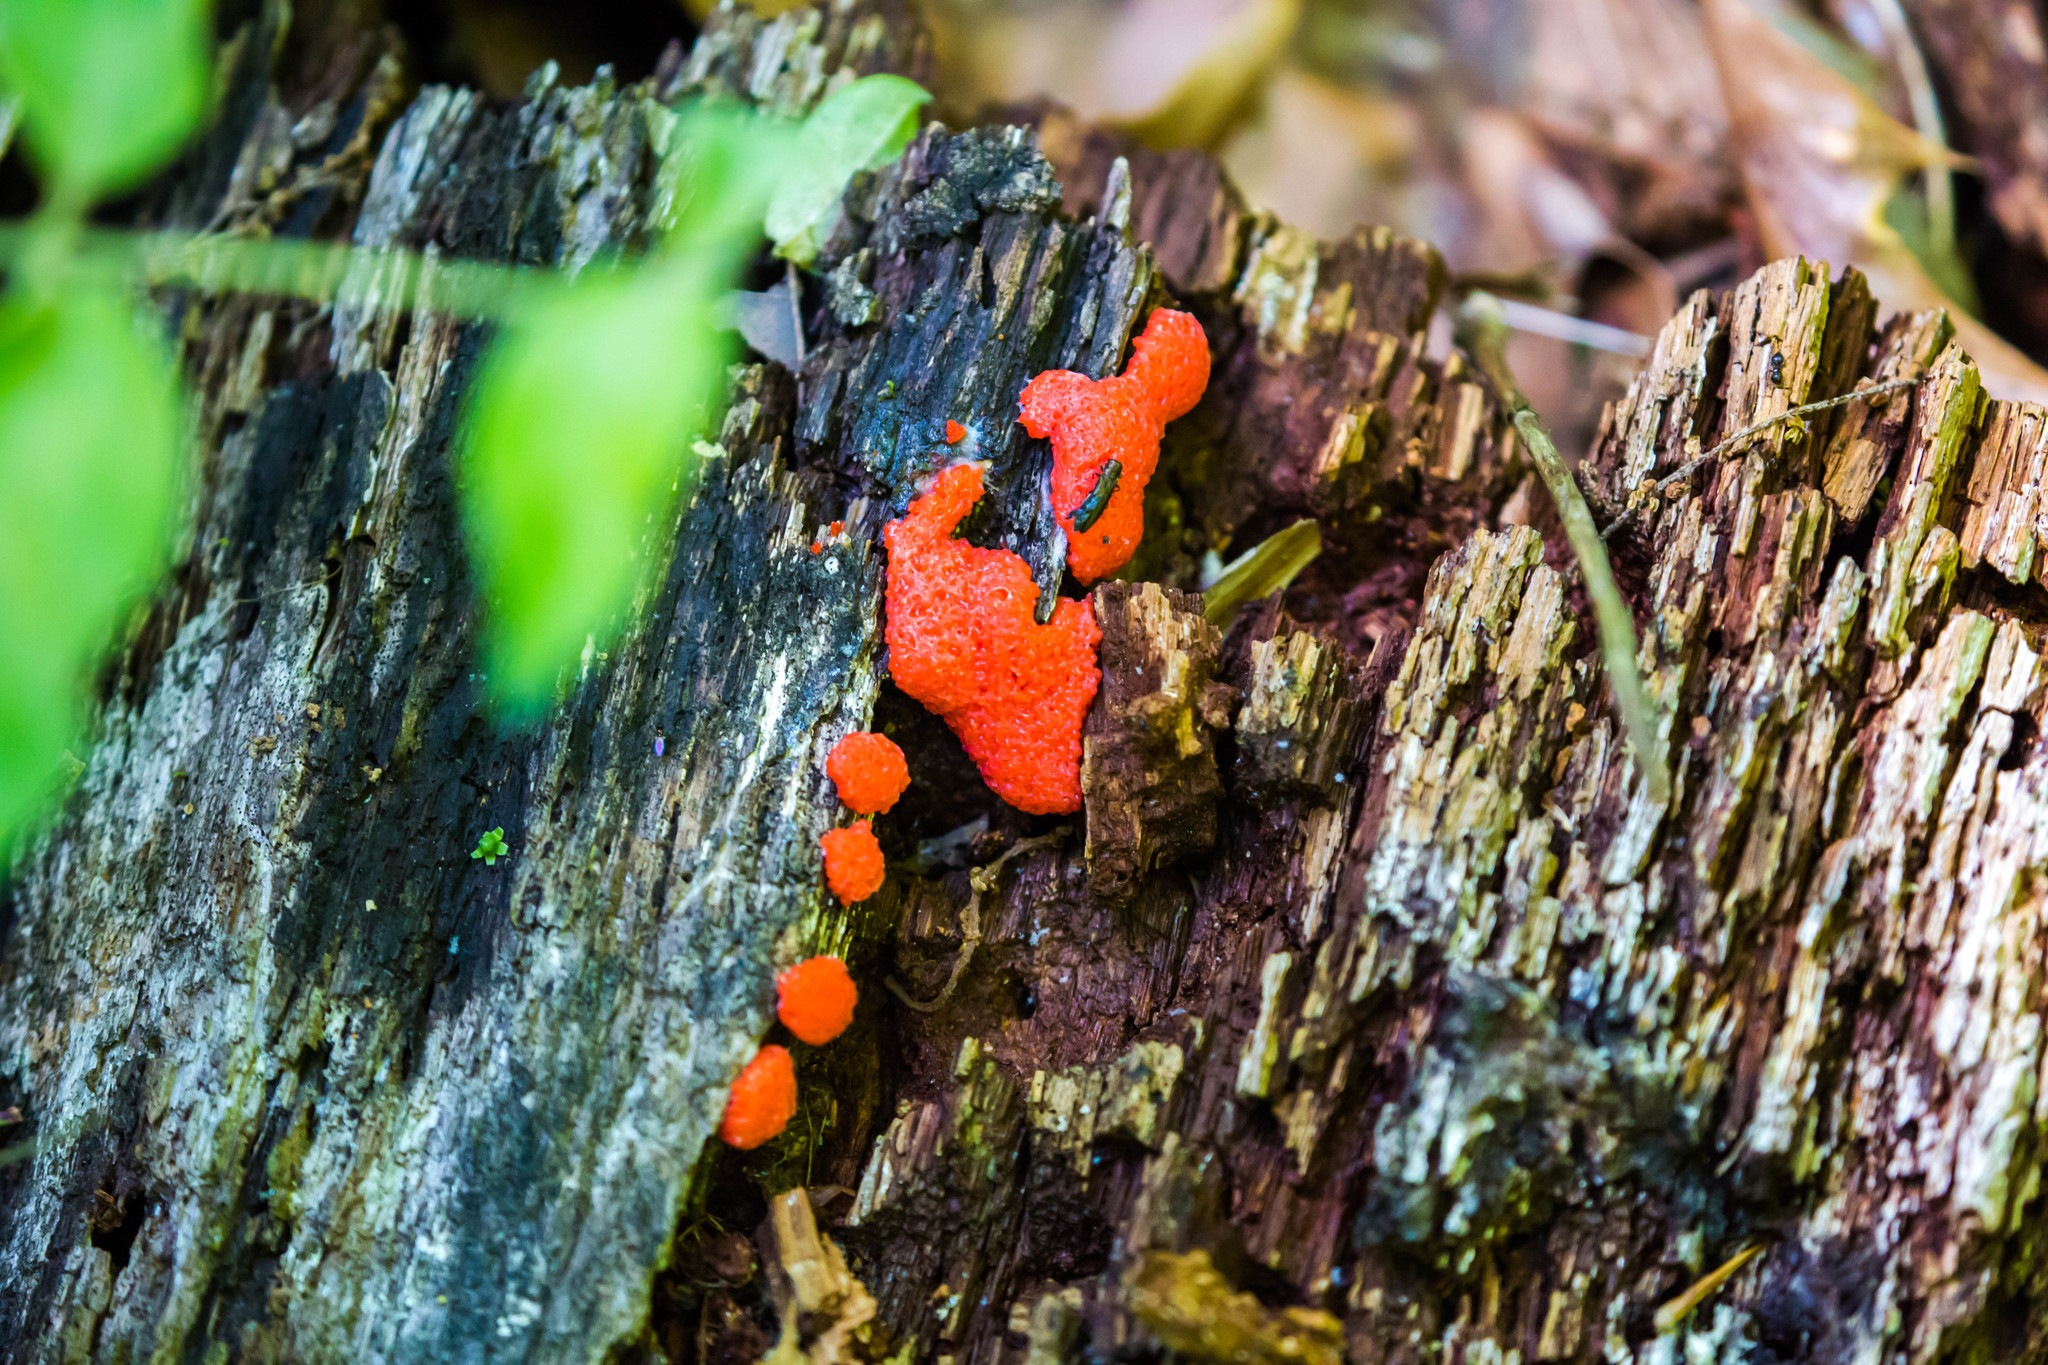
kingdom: Protozoa
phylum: Mycetozoa
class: Myxomycetes
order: Cribrariales
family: Tubiferaceae
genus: Tubifera
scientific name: Tubifera ferruginosa
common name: Red raspberry slime mold
